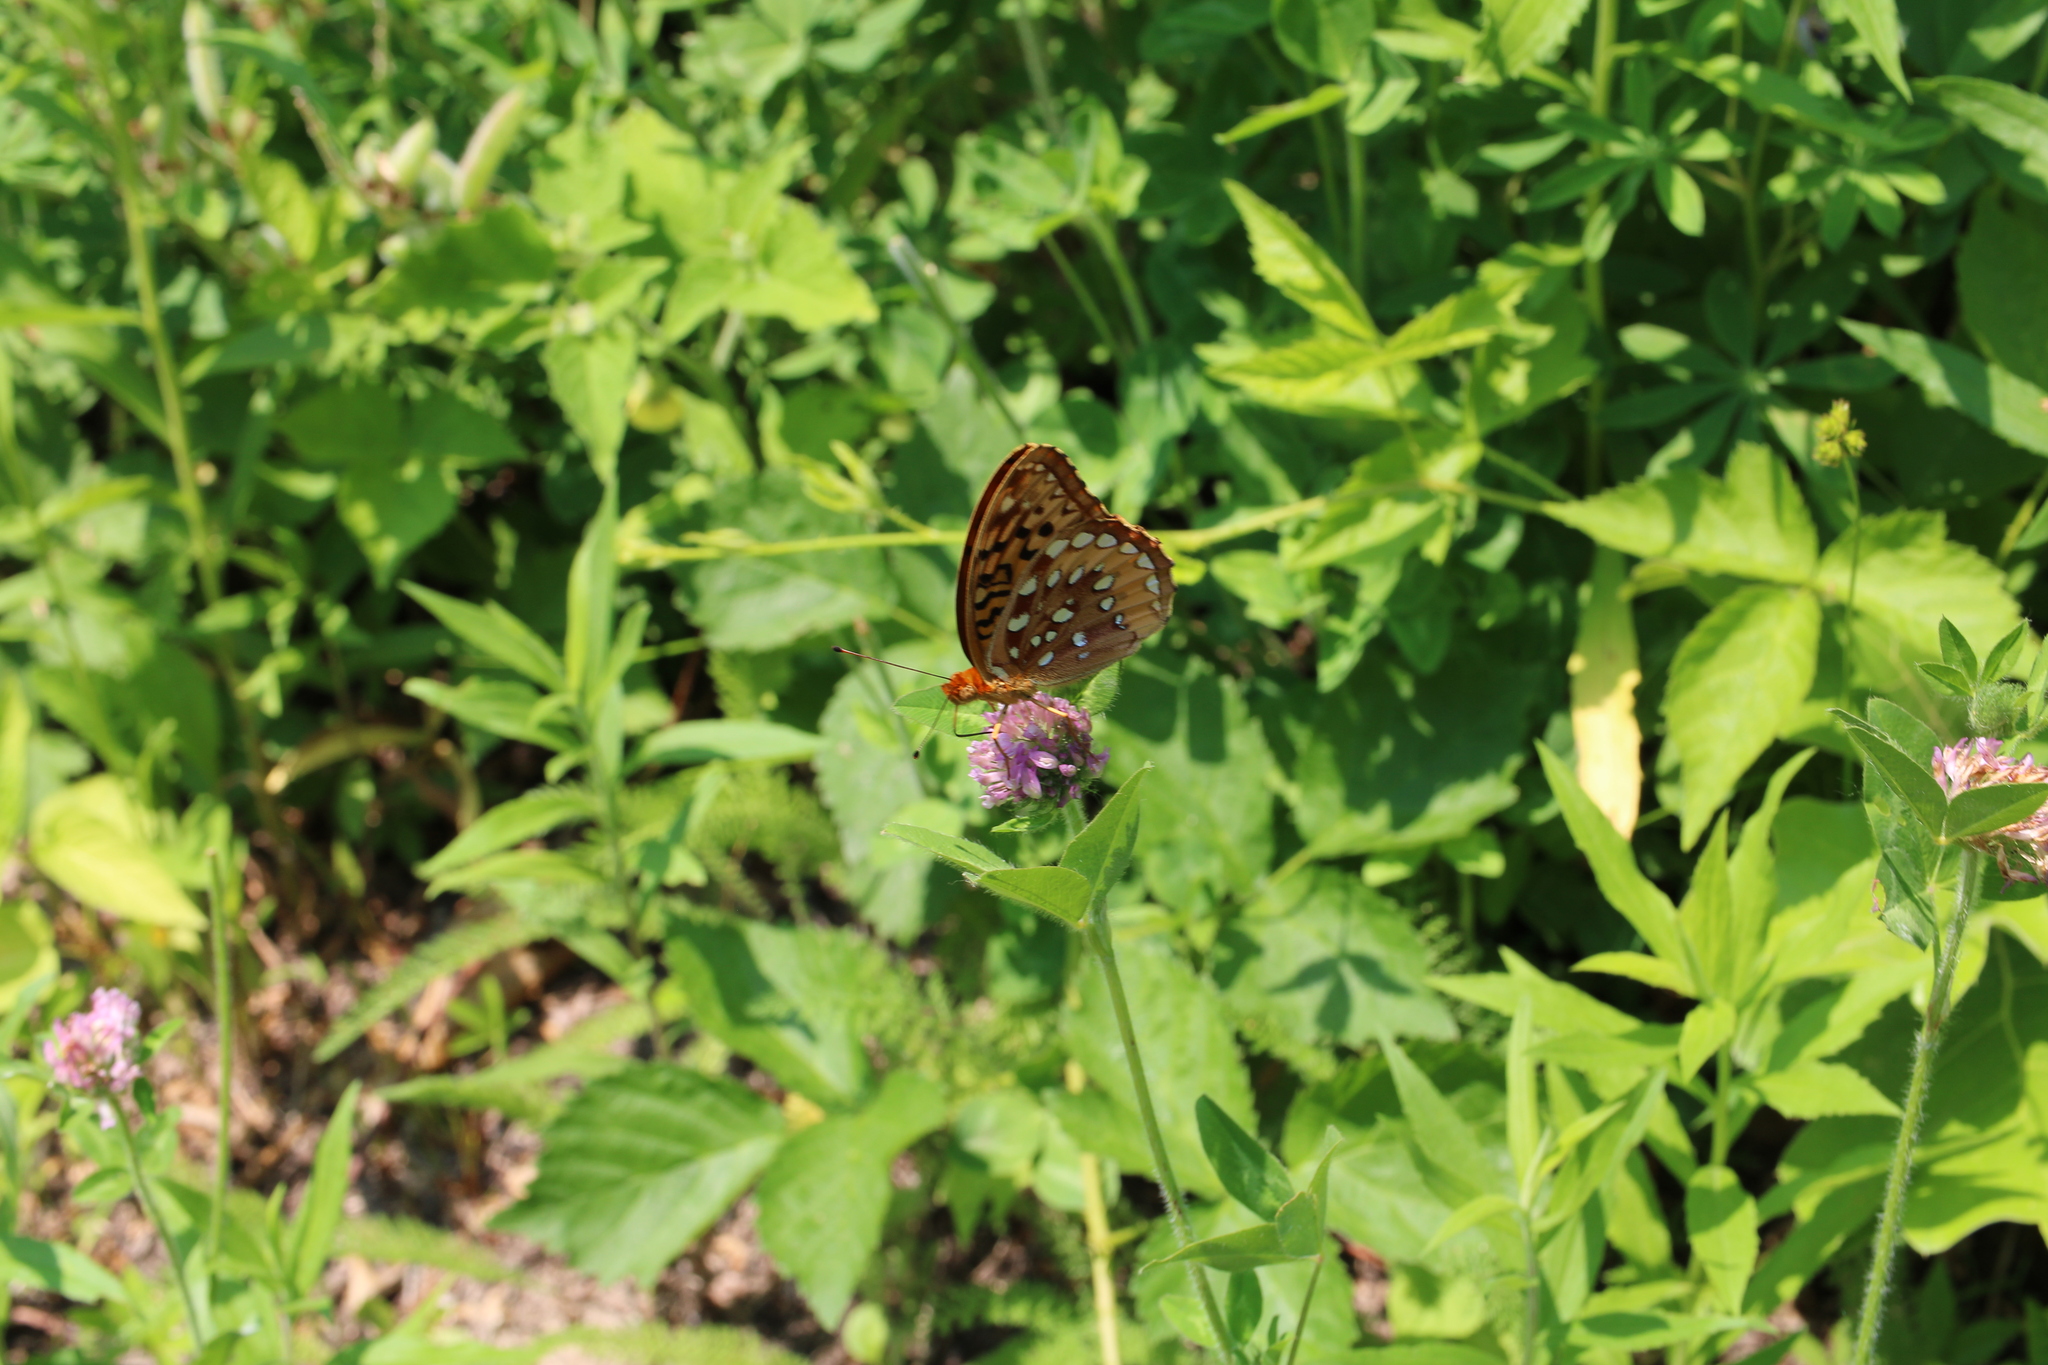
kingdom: Animalia
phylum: Arthropoda
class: Insecta
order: Lepidoptera
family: Nymphalidae
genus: Speyeria
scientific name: Speyeria cybele
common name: Great spangled fritillary
